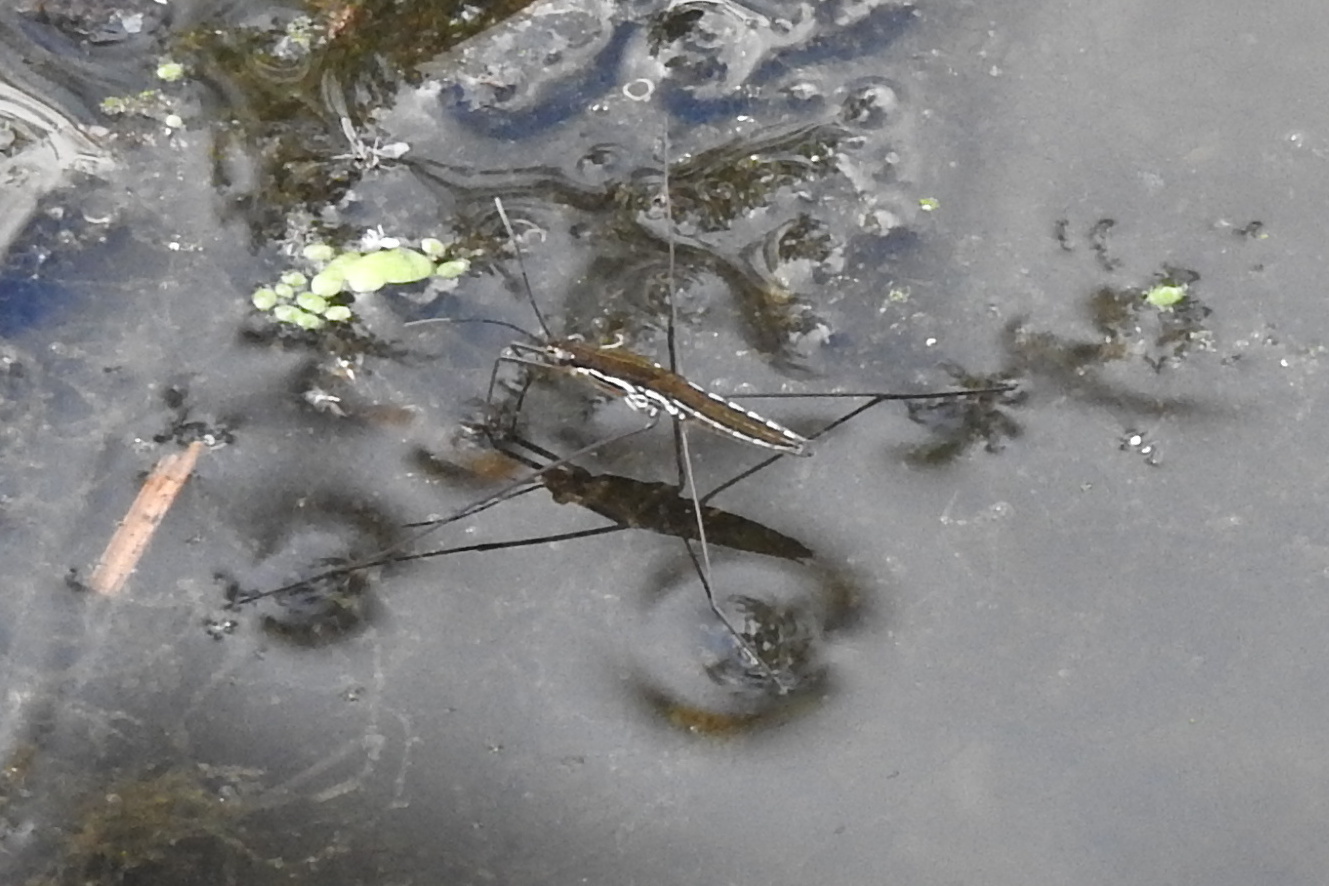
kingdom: Animalia
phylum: Arthropoda
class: Insecta
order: Hemiptera
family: Gerridae
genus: Limnoporus
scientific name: Limnoporus canaliculatus
